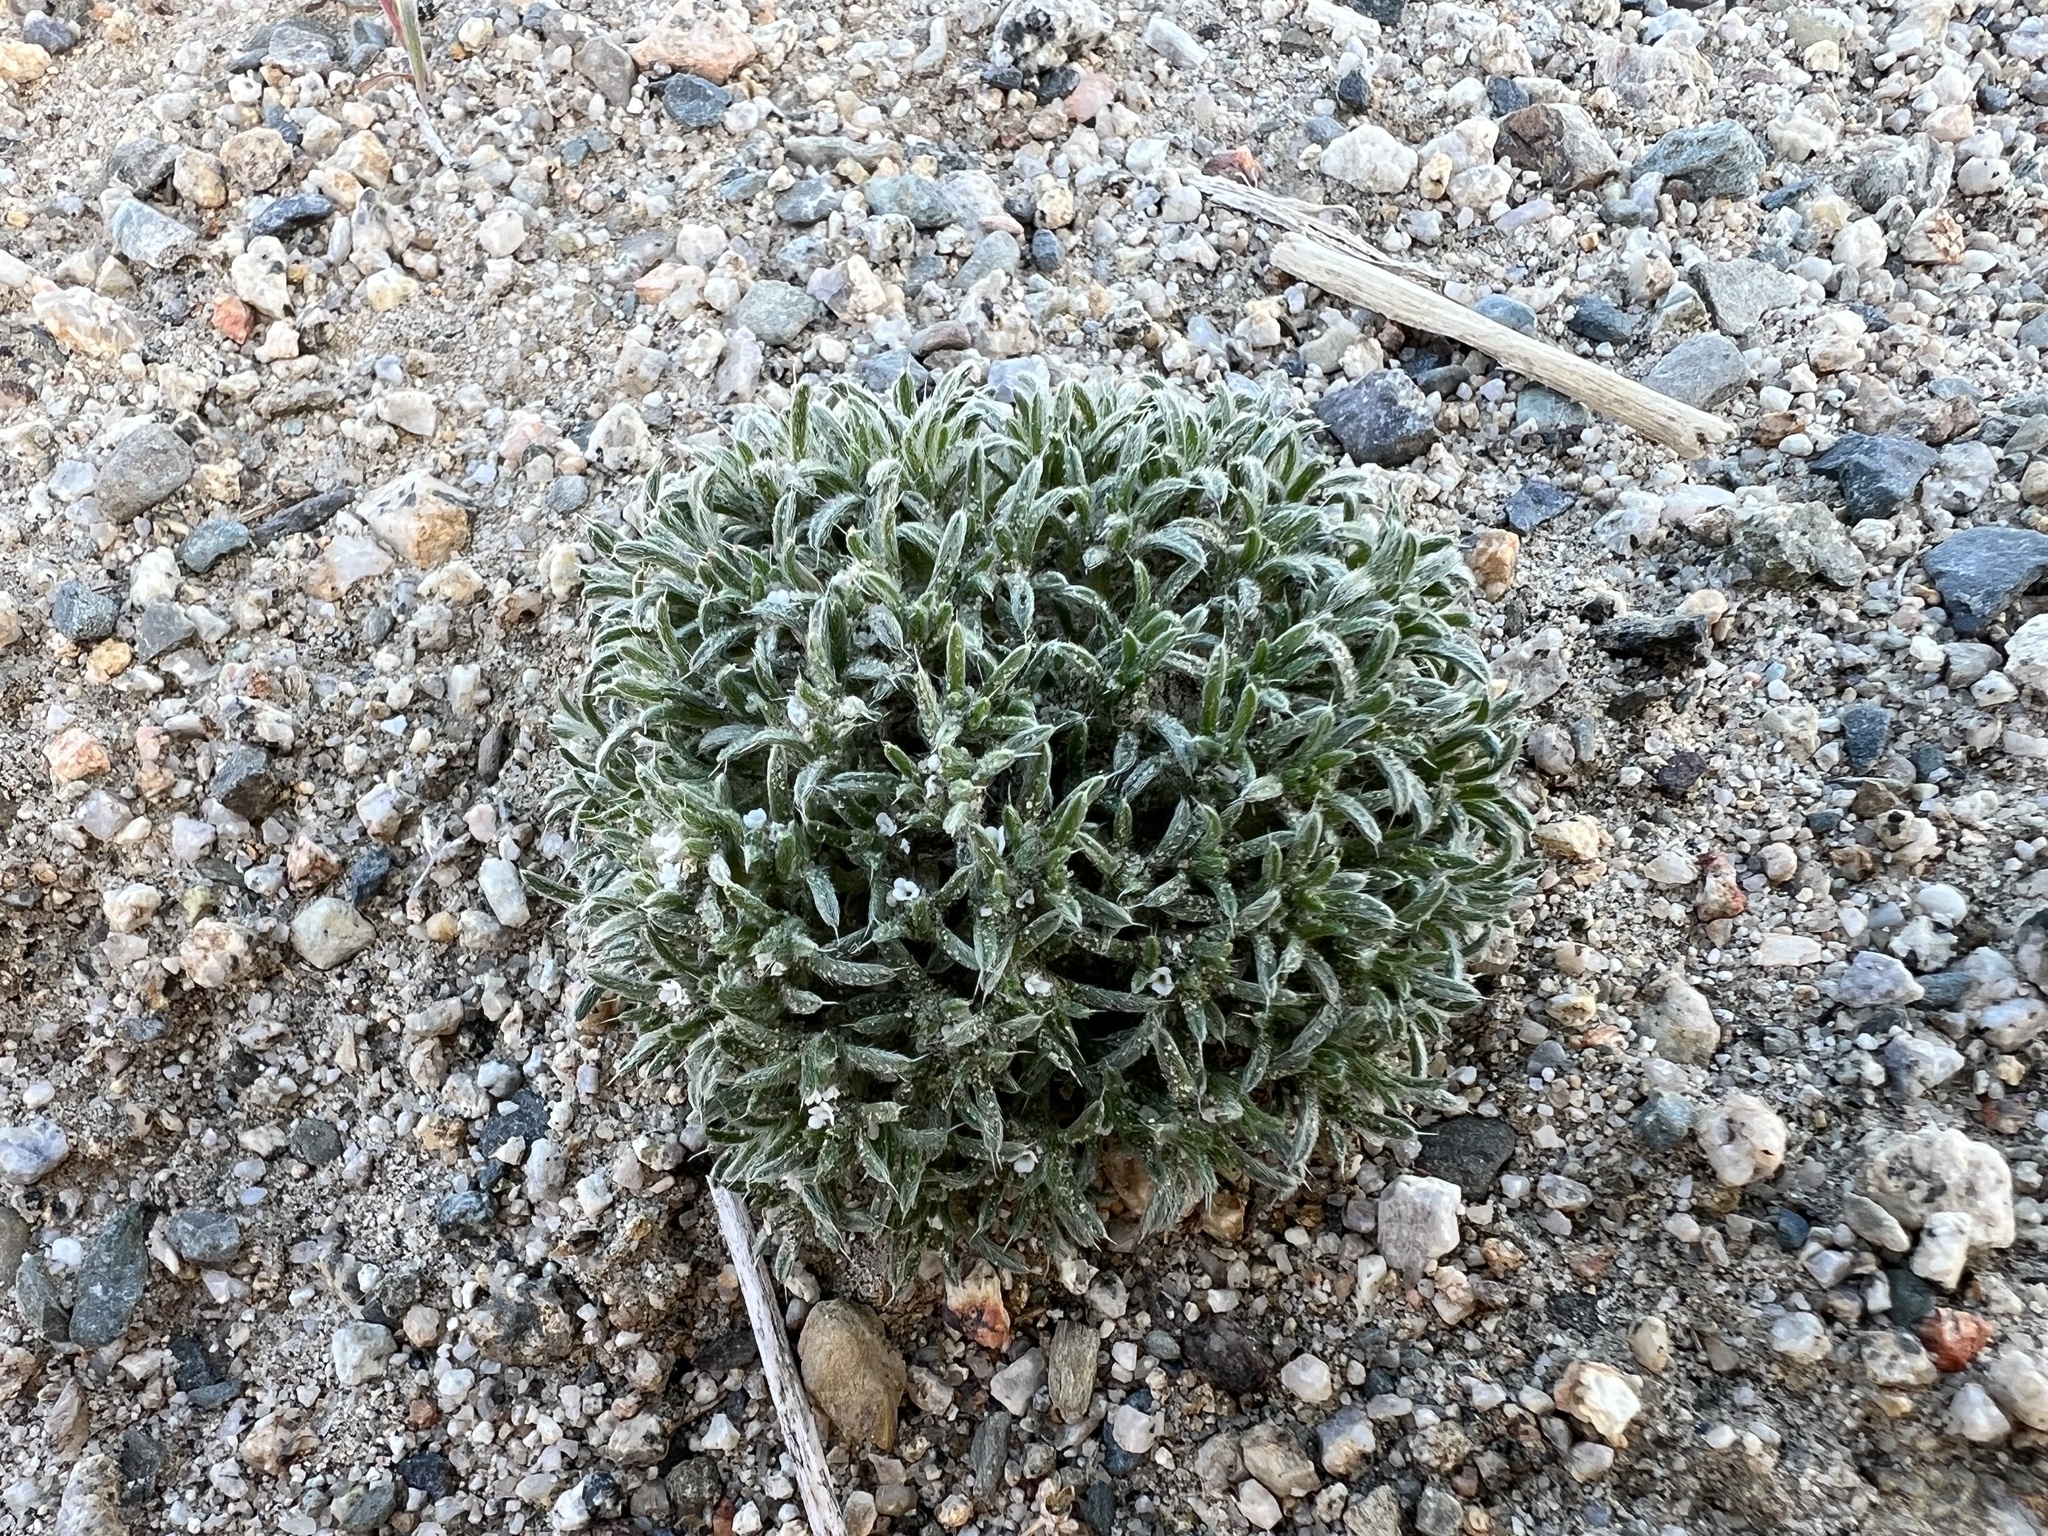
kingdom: Plantae
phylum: Tracheophyta
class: Magnoliopsida
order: Boraginales
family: Boraginaceae
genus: Greeneocharis
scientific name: Greeneocharis circumscissa
